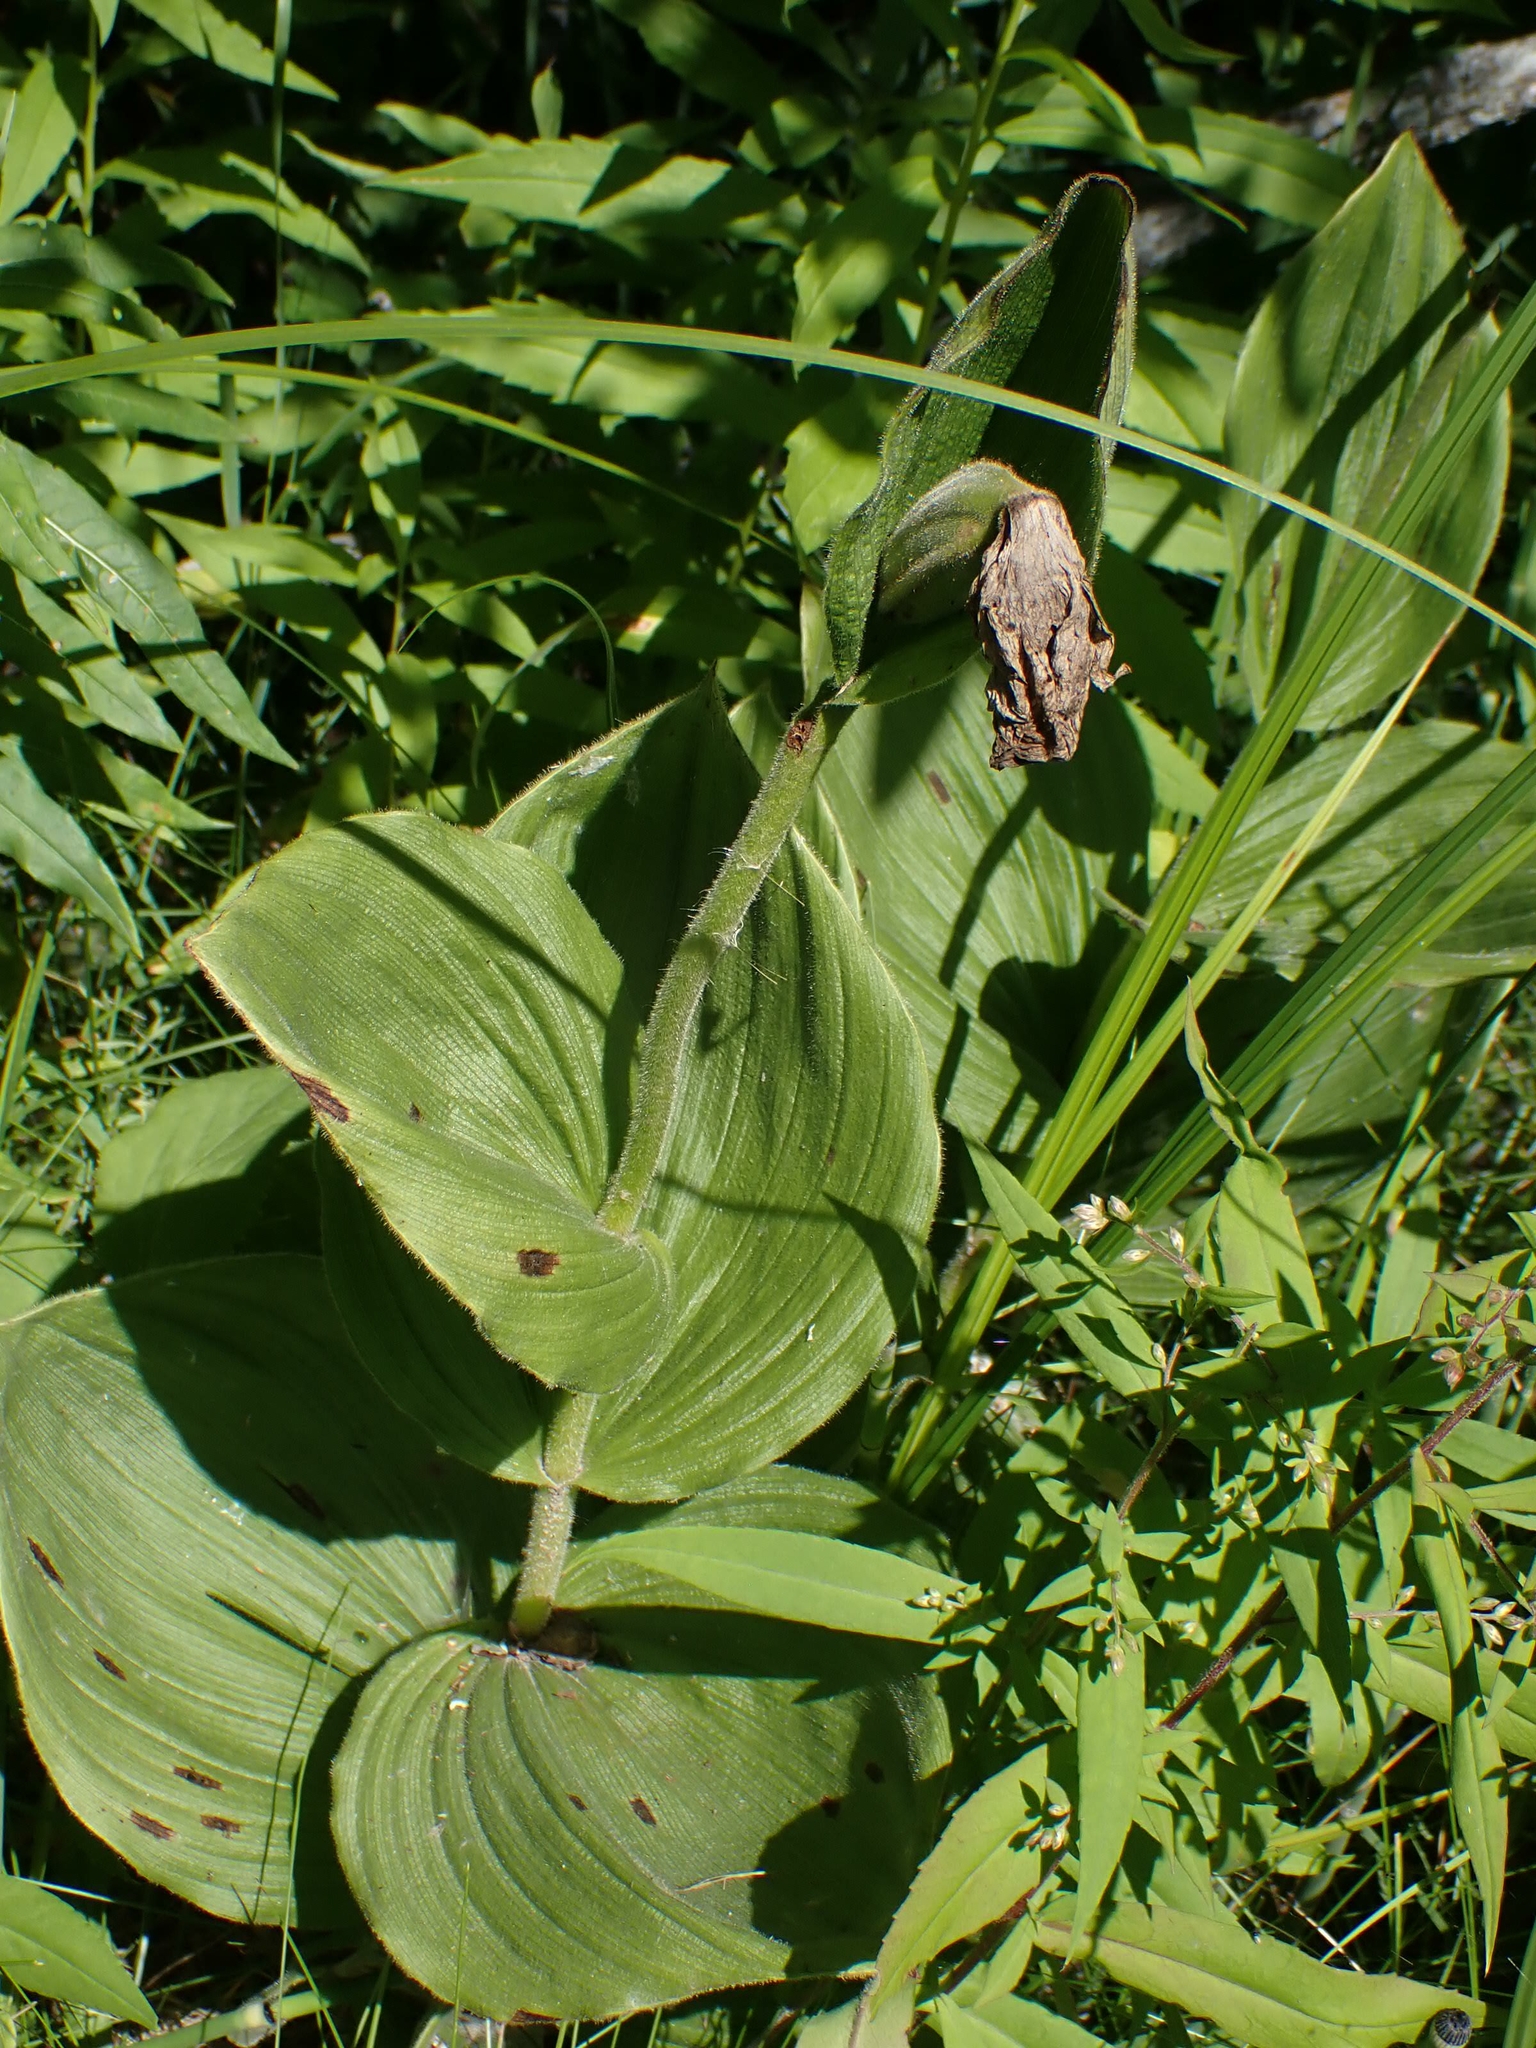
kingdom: Plantae
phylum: Tracheophyta
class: Liliopsida
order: Asparagales
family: Orchidaceae
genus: Cypripedium
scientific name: Cypripedium reginae
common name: Queen lady's-slipper
